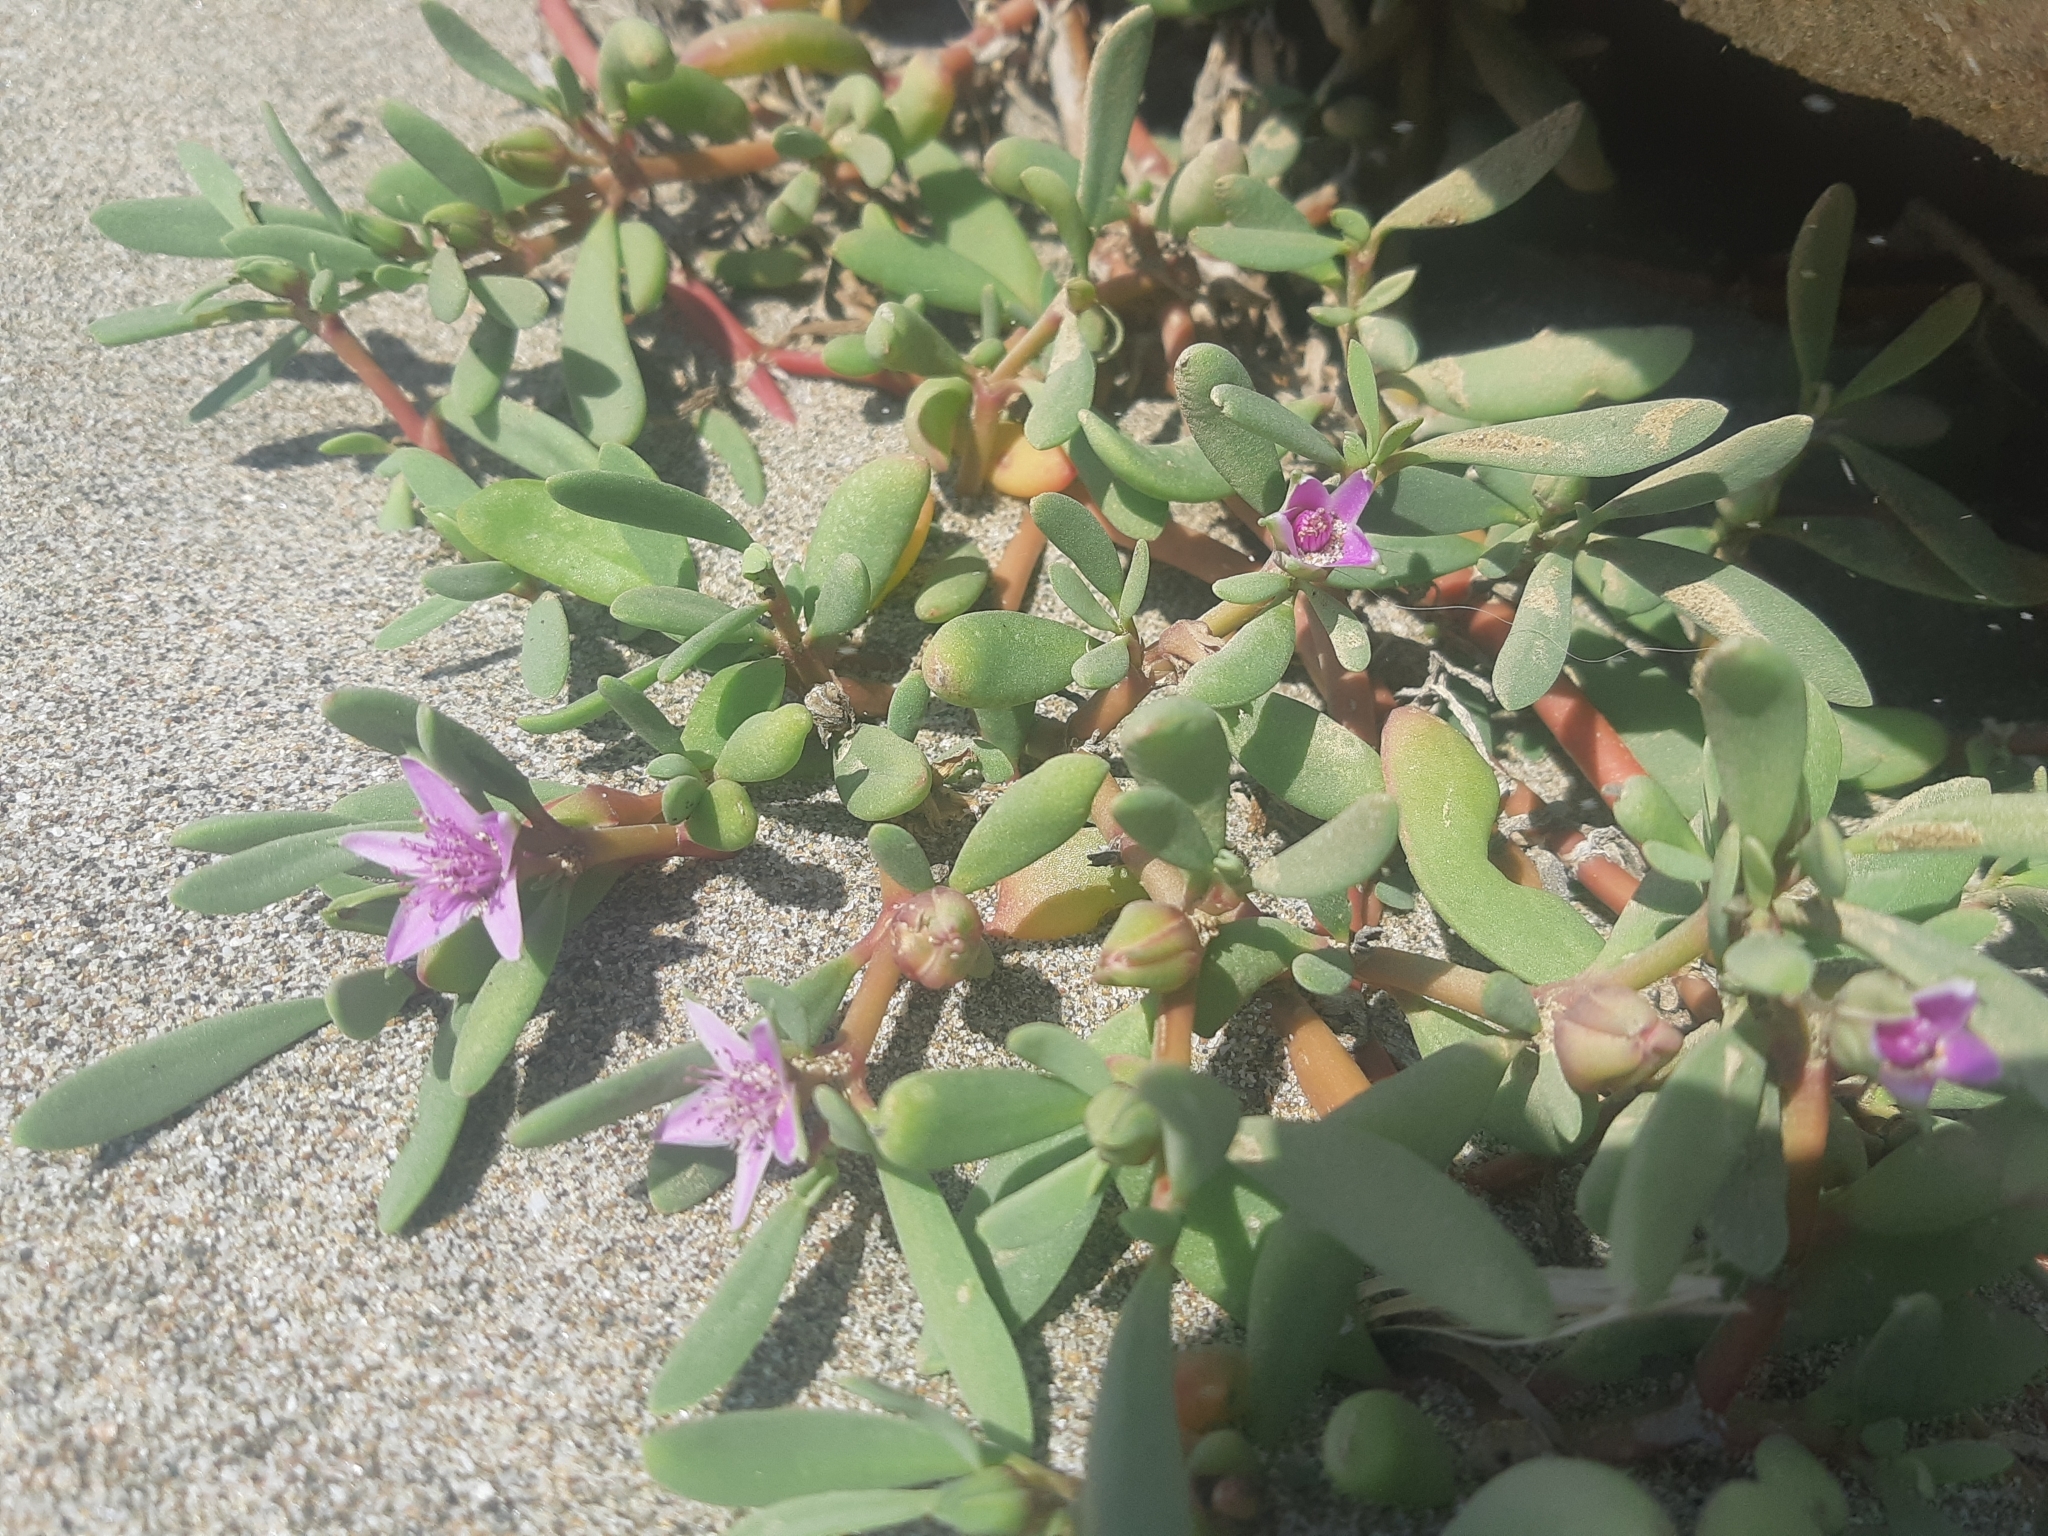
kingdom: Plantae
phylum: Tracheophyta
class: Magnoliopsida
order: Caryophyllales
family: Aizoaceae
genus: Sesuvium
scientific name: Sesuvium portulacastrum
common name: Sea-purslane
